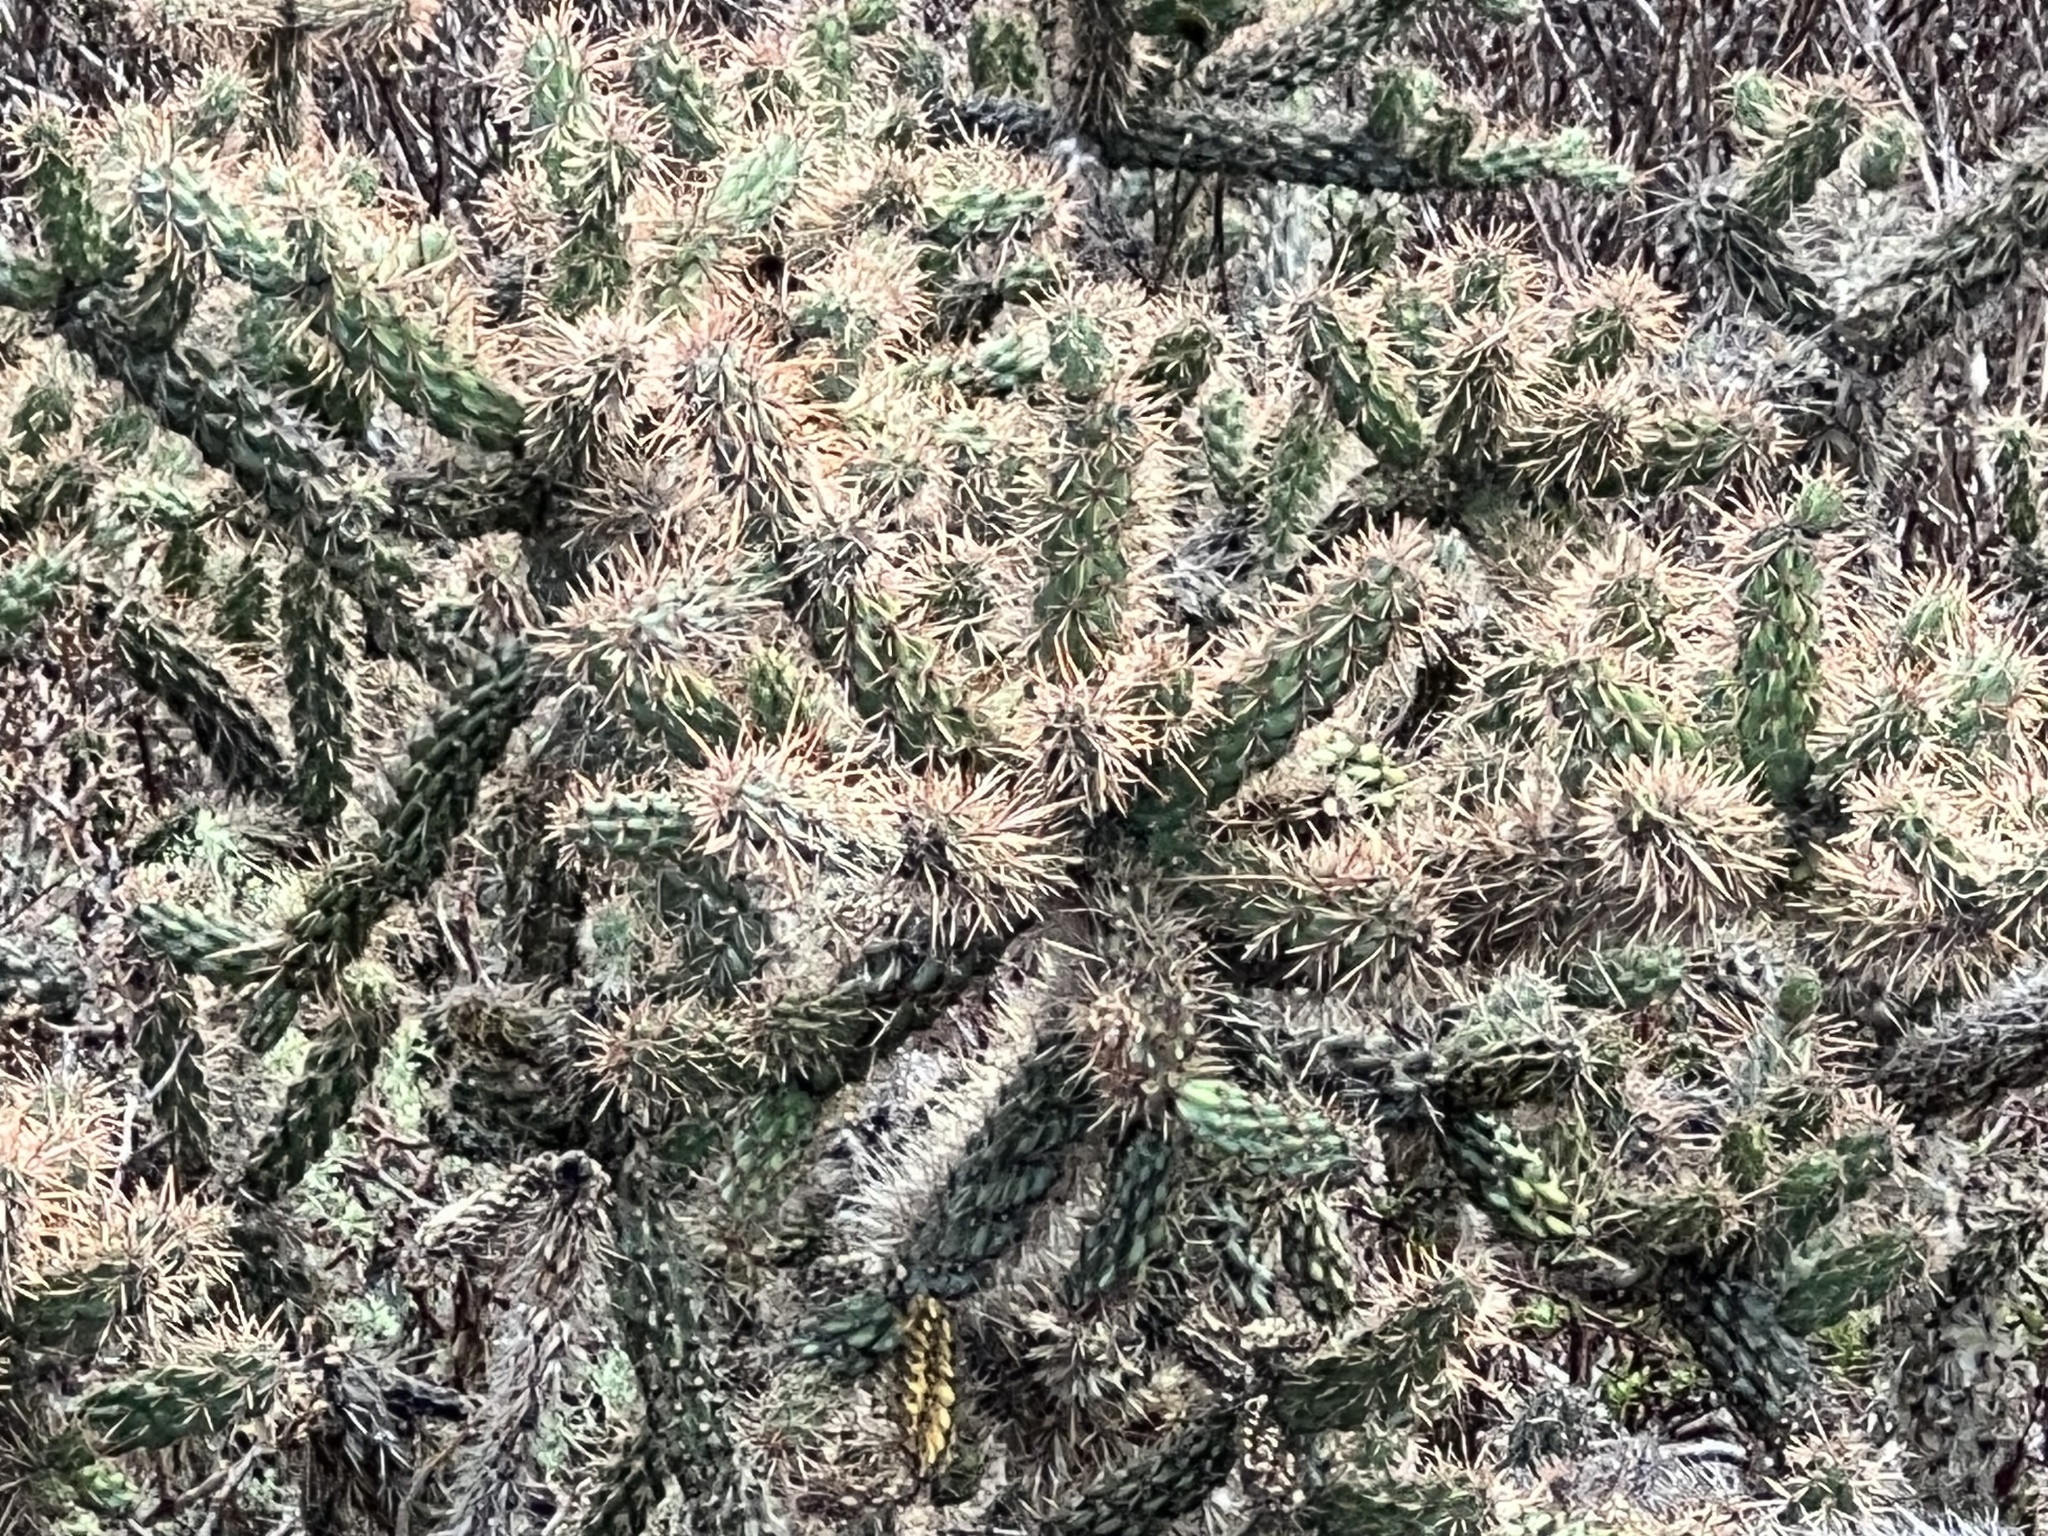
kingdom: Plantae
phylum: Tracheophyta
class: Magnoliopsida
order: Caryophyllales
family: Cactaceae
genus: Cylindropuntia
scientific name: Cylindropuntia prolifera
